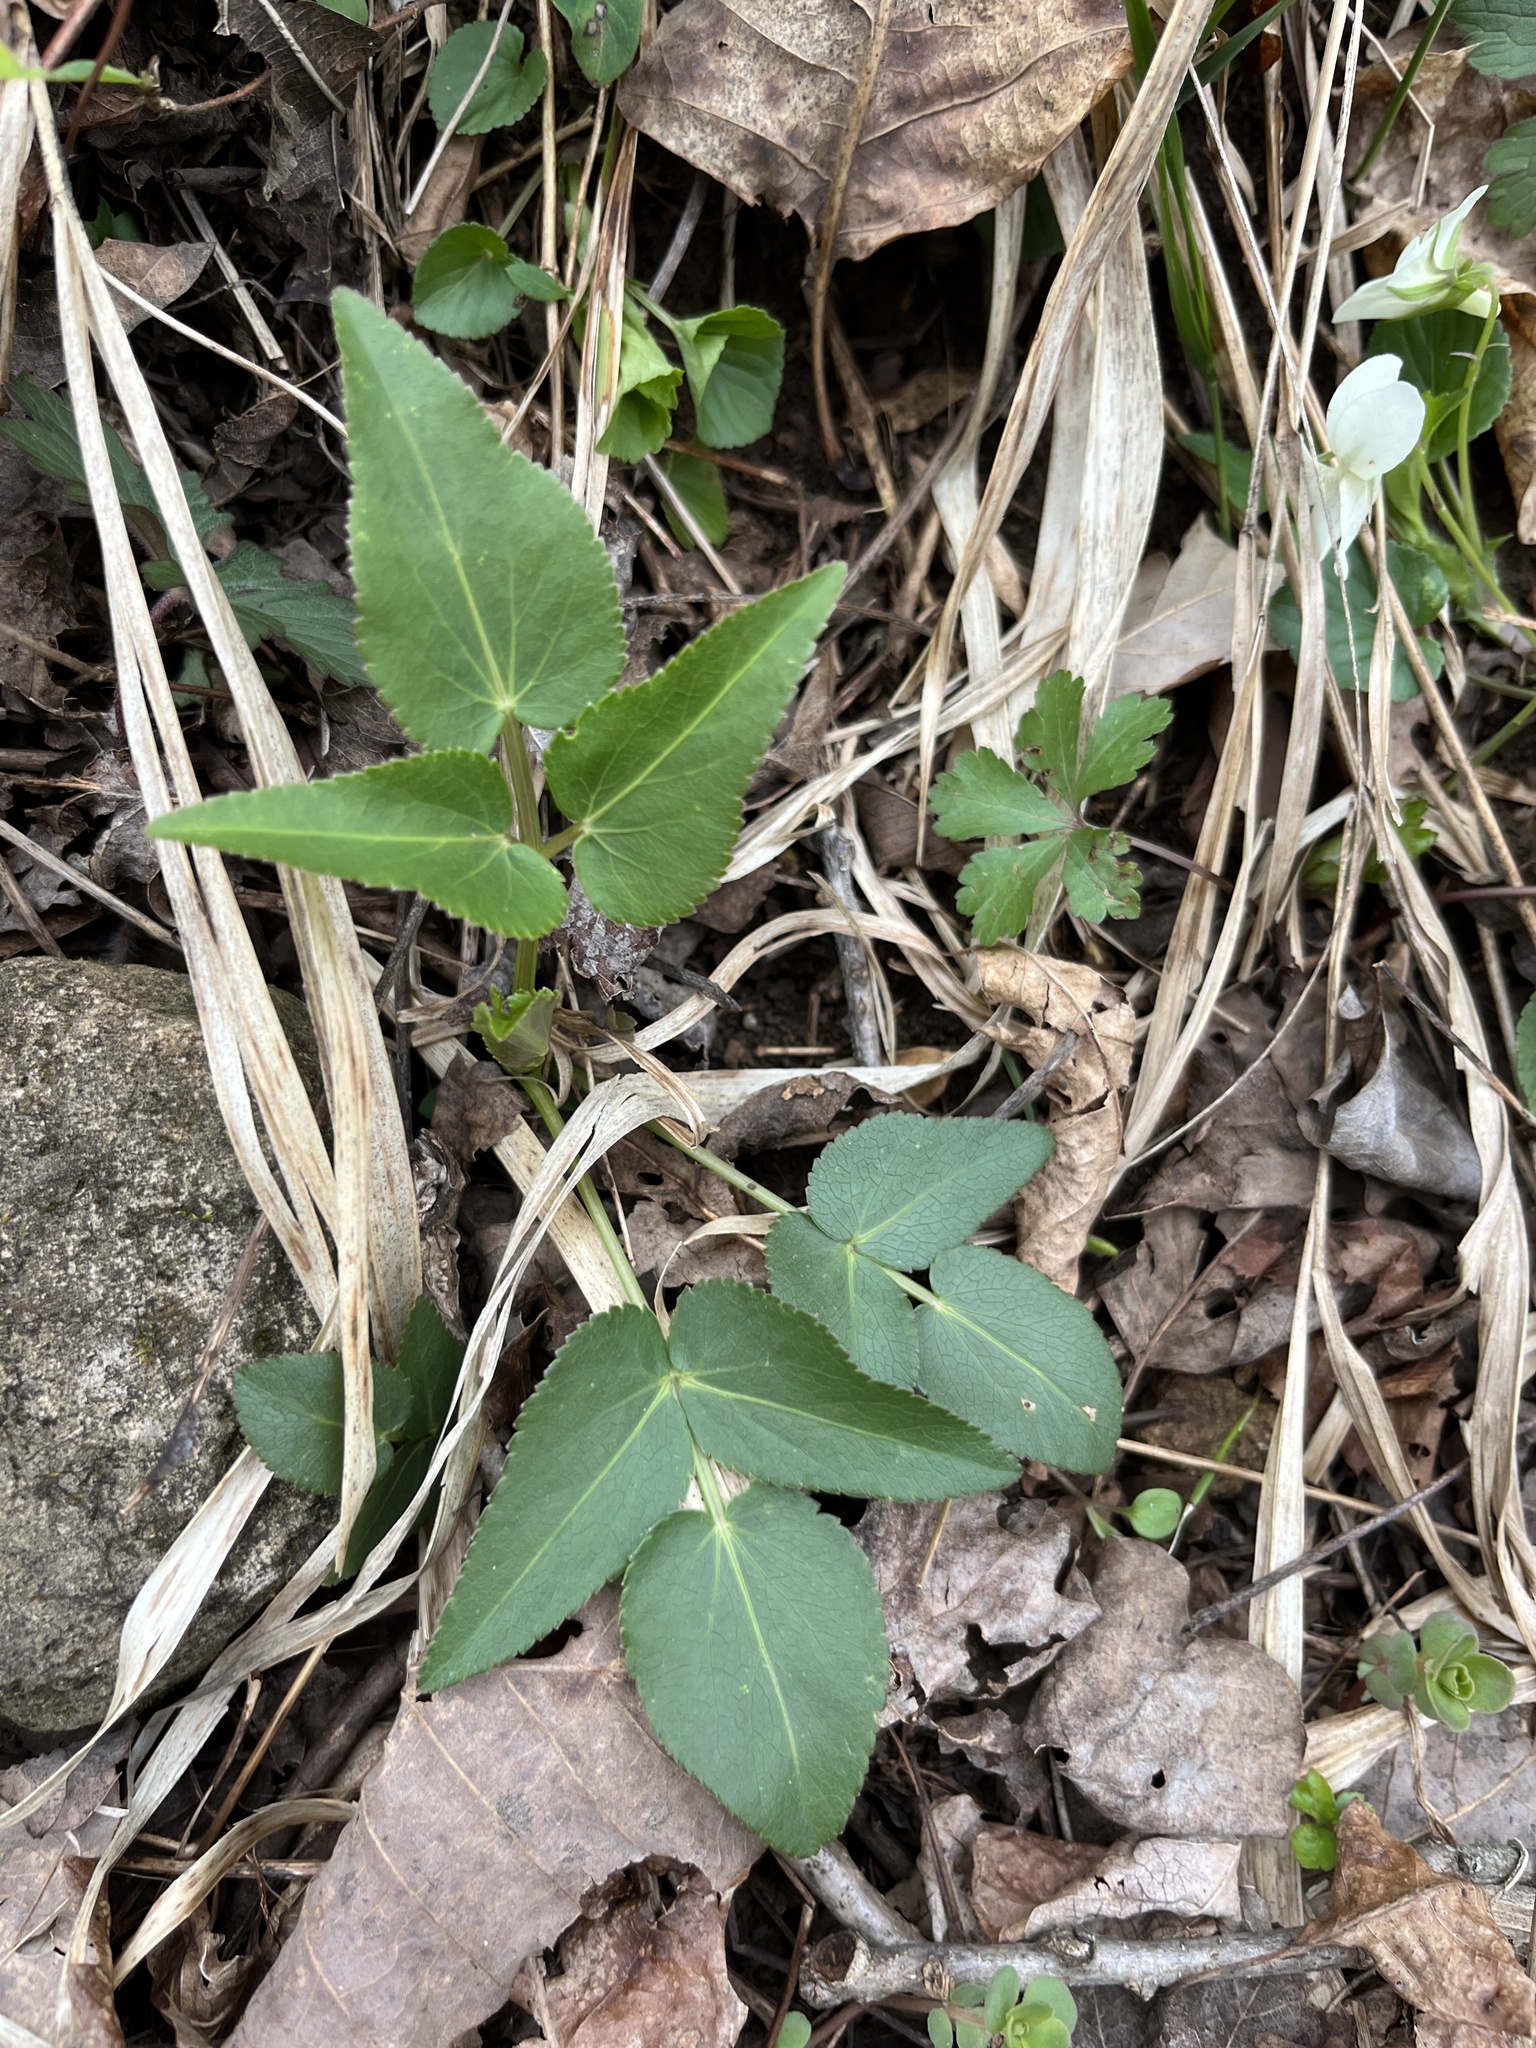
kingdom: Plantae
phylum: Tracheophyta
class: Magnoliopsida
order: Apiales
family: Apiaceae
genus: Thaspium
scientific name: Thaspium trifoliatum
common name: Purple meadow-parsnip
